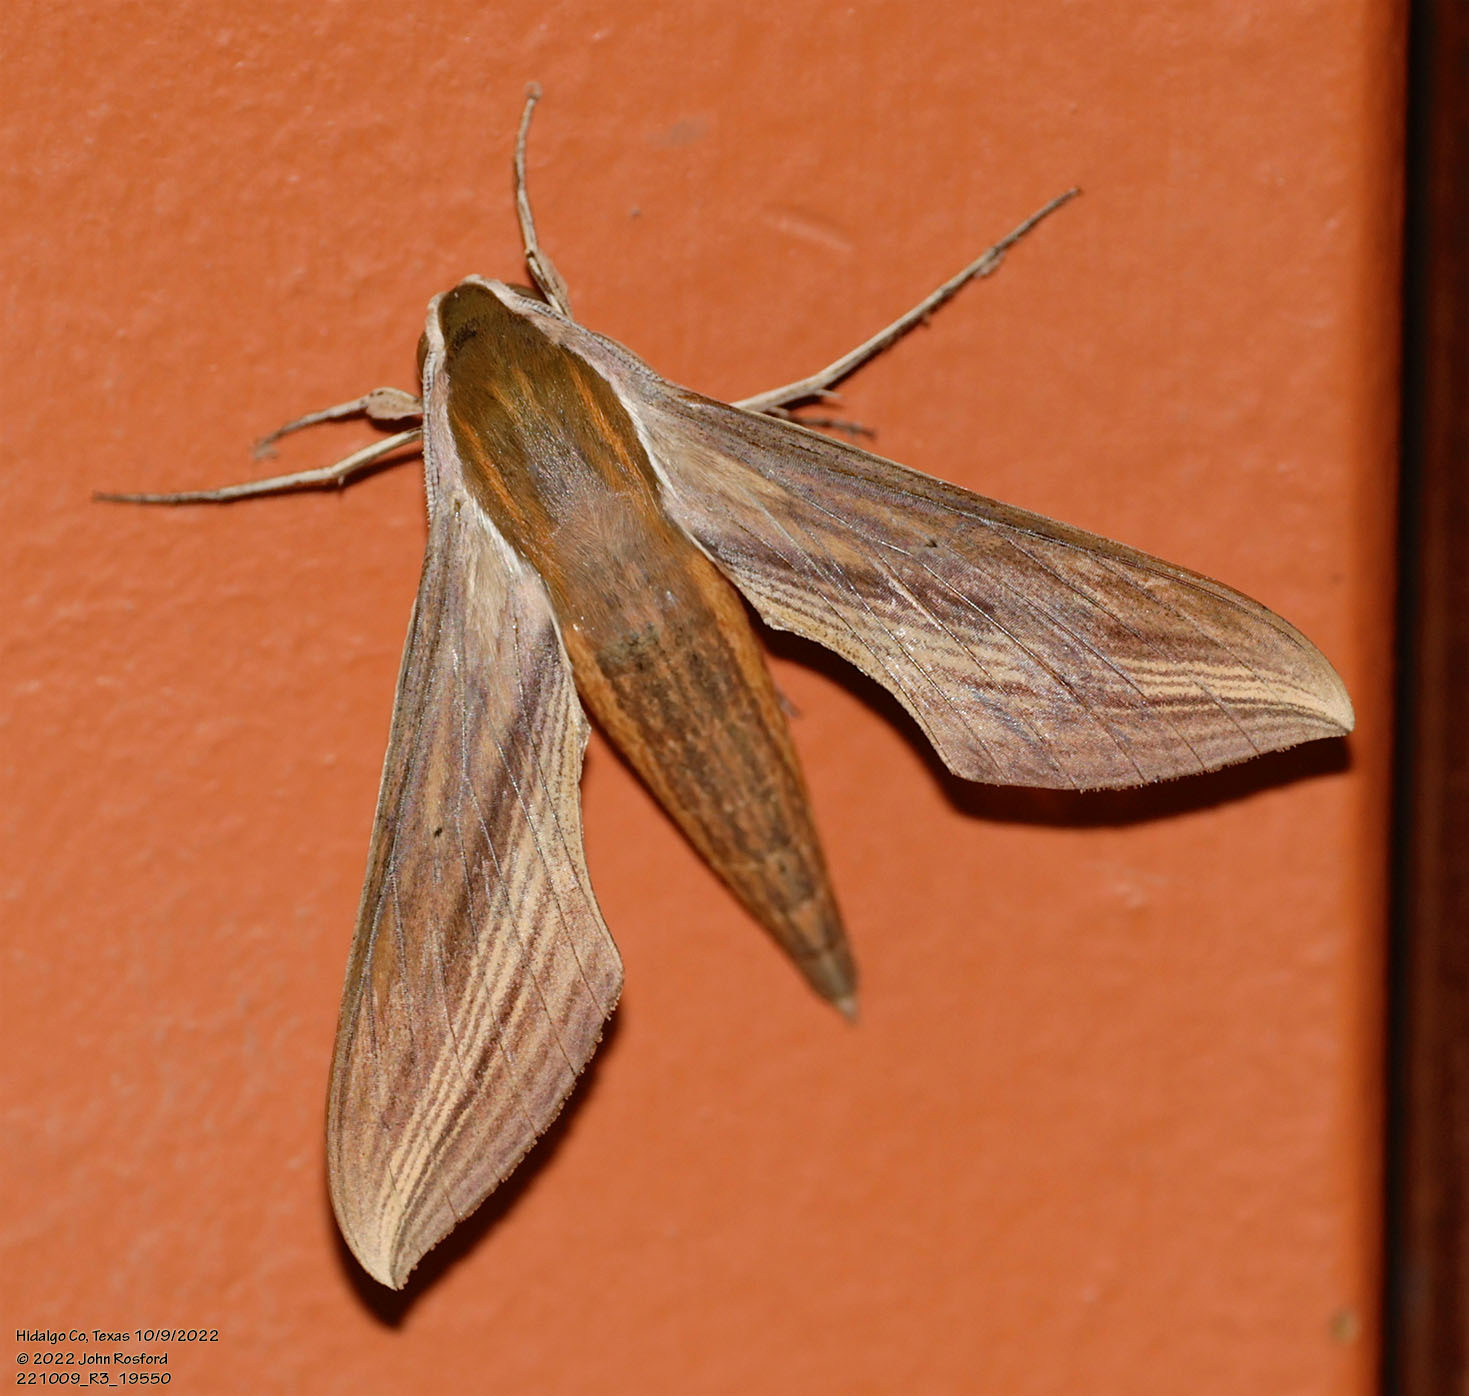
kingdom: Animalia
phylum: Arthropoda
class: Insecta
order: Lepidoptera
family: Sphingidae
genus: Xylophanes
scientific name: Xylophanes tersa
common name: Tersa sphinx
